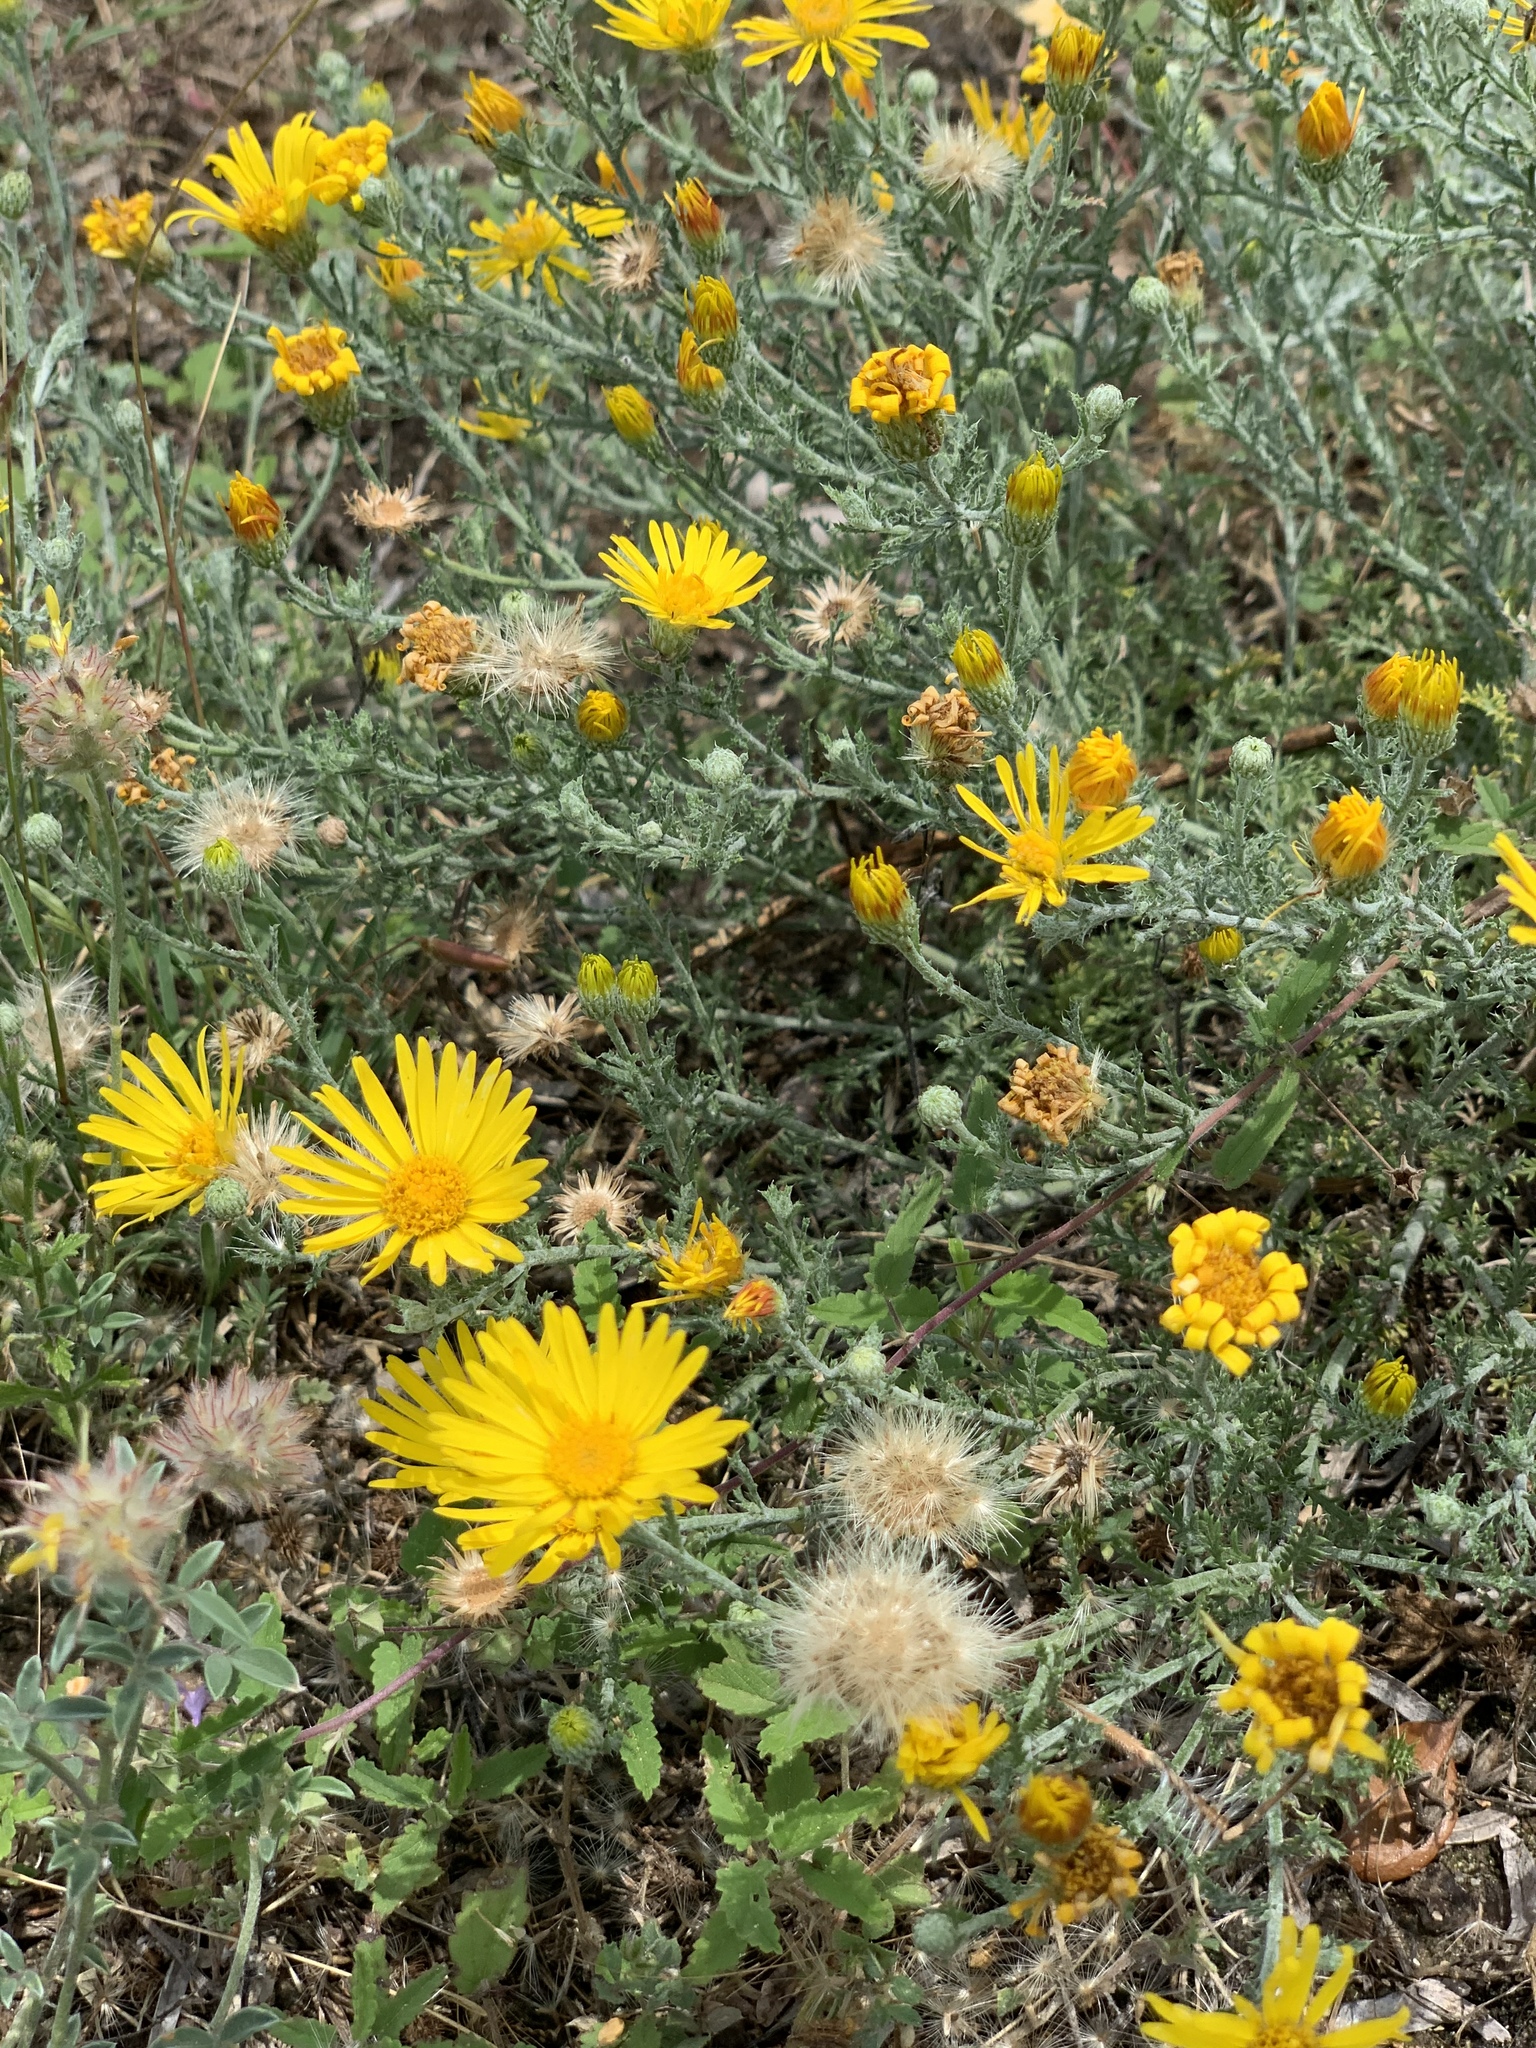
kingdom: Plantae
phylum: Tracheophyta
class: Magnoliopsida
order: Asterales
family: Asteraceae
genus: Xanthisma
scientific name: Xanthisma spinulosum
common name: Spiny goldenweed
